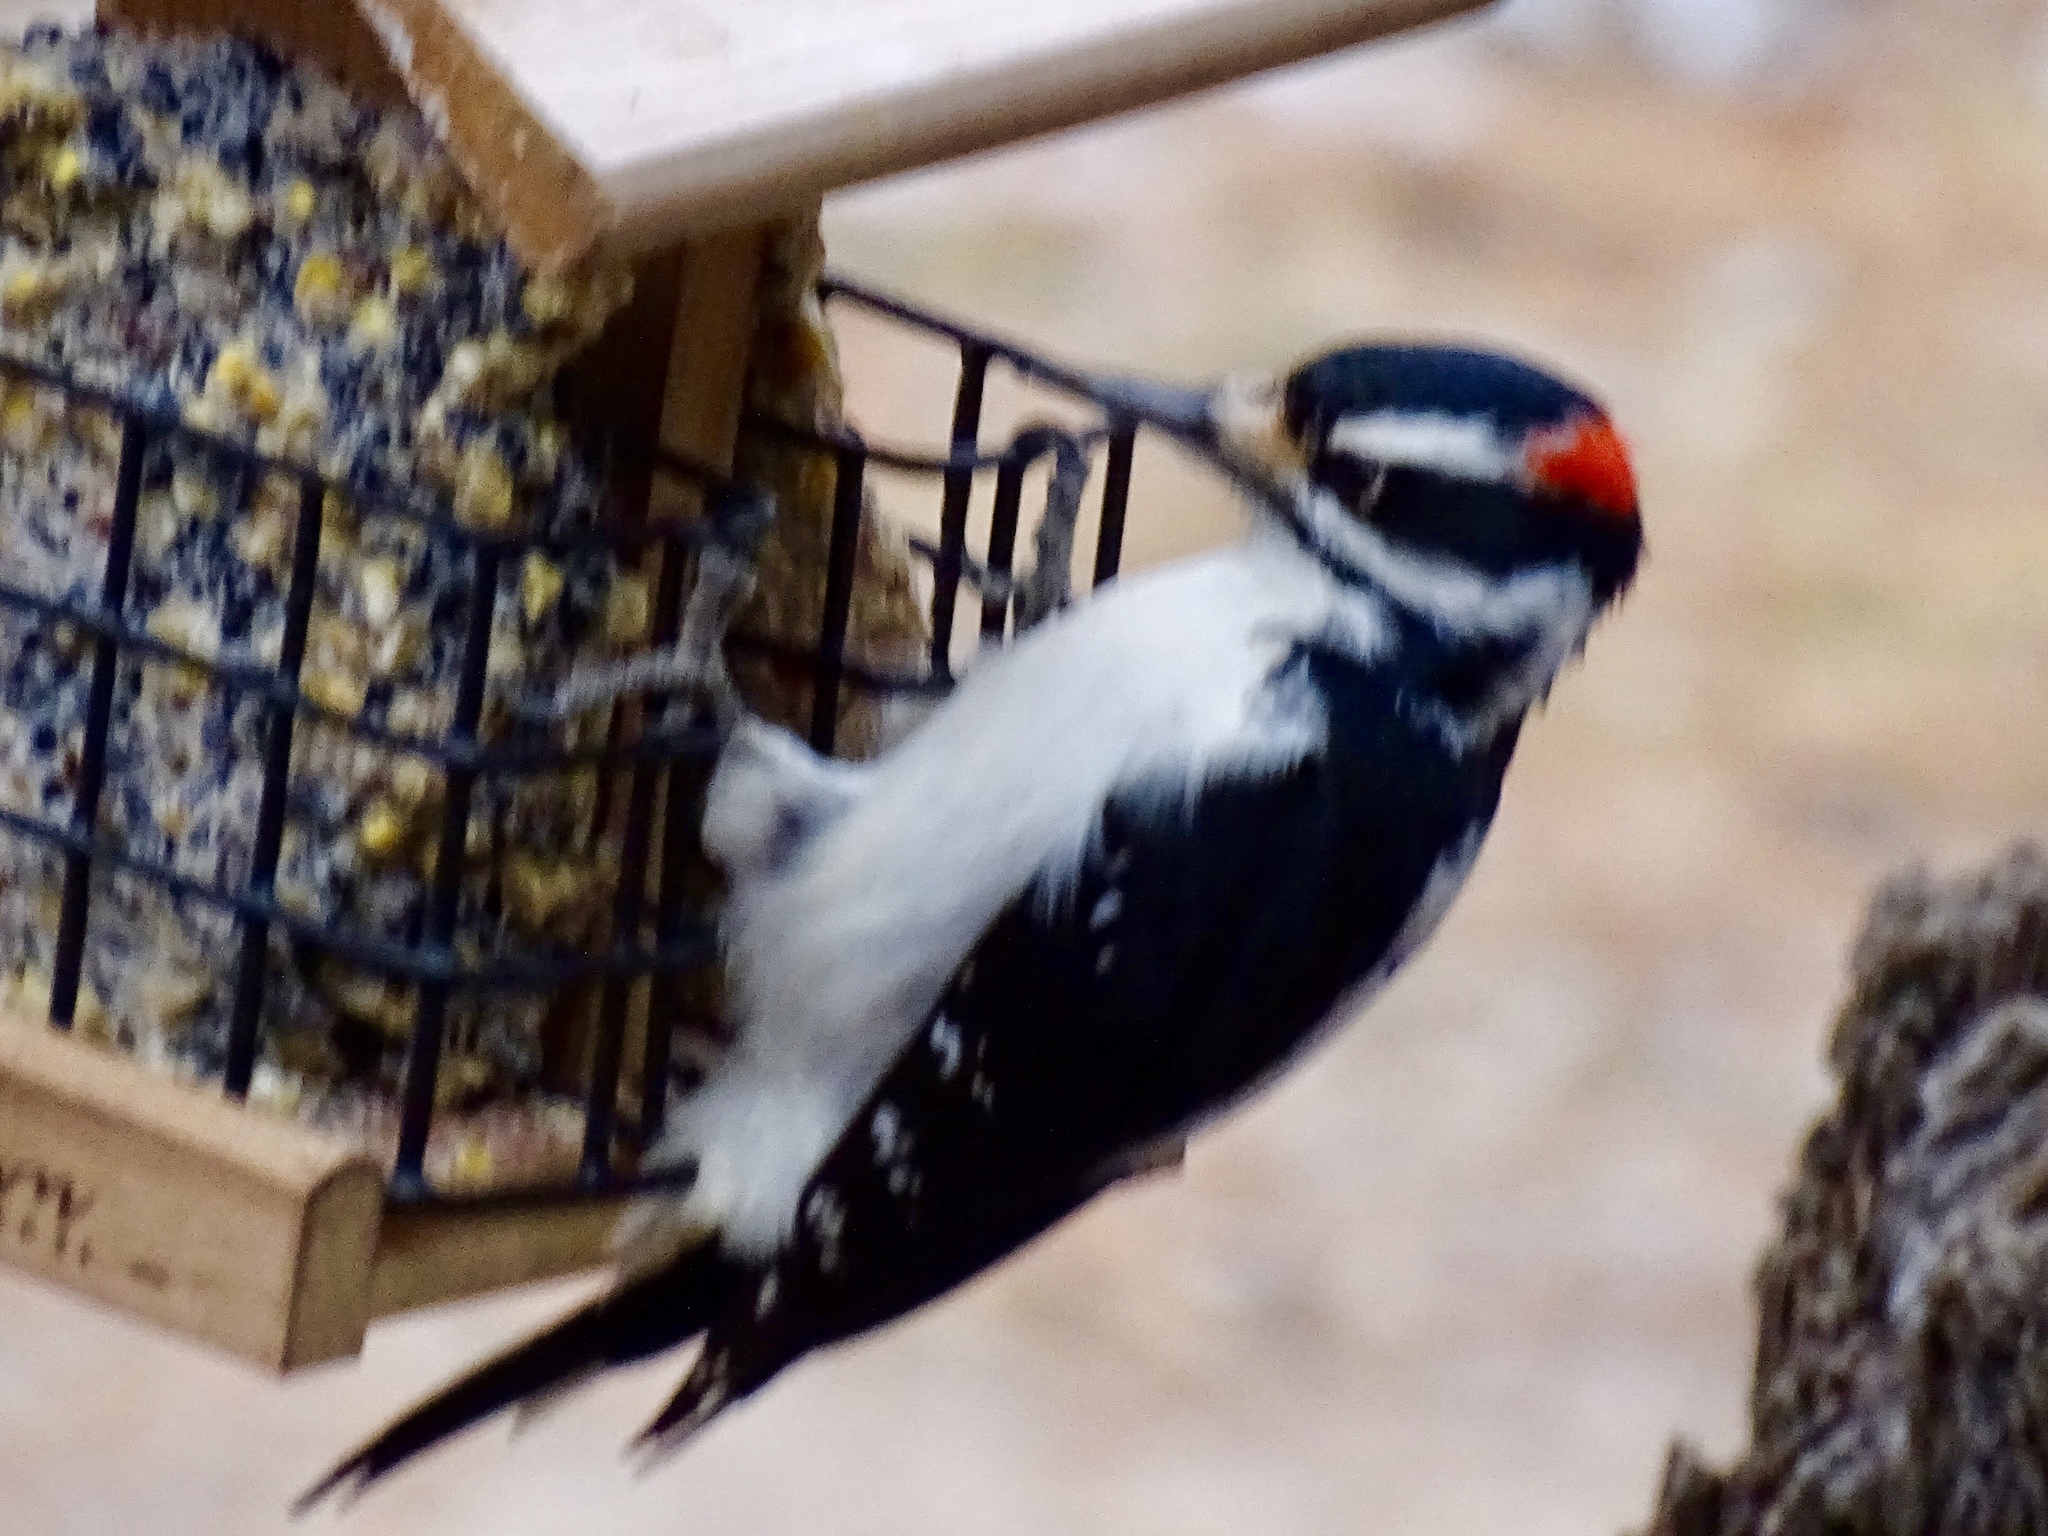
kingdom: Animalia
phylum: Chordata
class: Aves
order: Piciformes
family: Picidae
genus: Leuconotopicus
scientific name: Leuconotopicus villosus
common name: Hairy woodpecker
